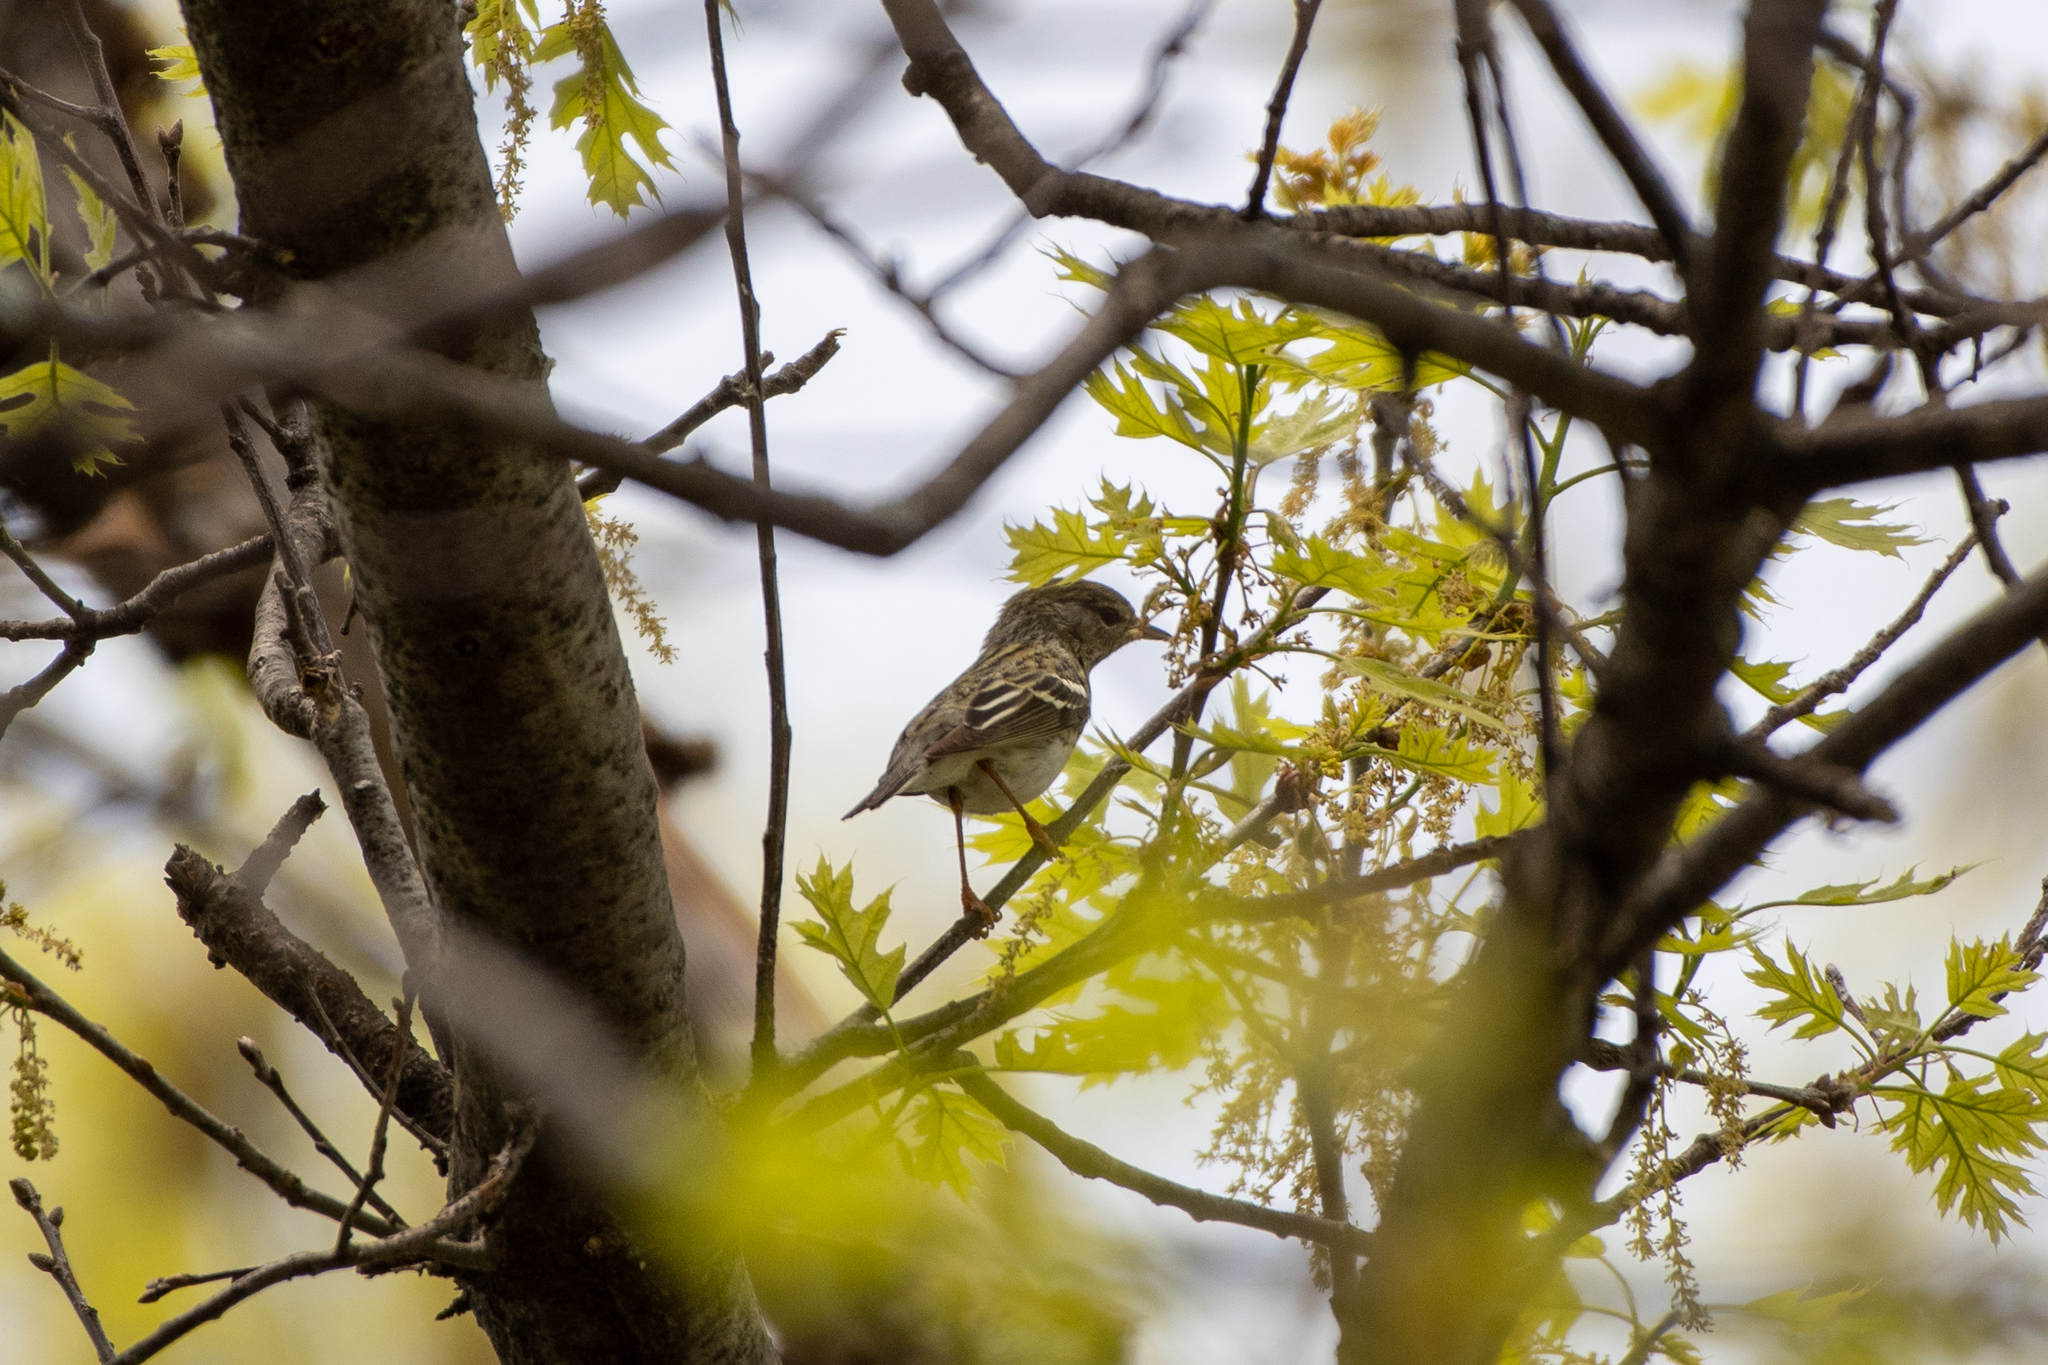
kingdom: Animalia
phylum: Chordata
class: Aves
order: Passeriformes
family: Parulidae
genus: Setophaga
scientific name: Setophaga striata
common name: Blackpoll warbler
